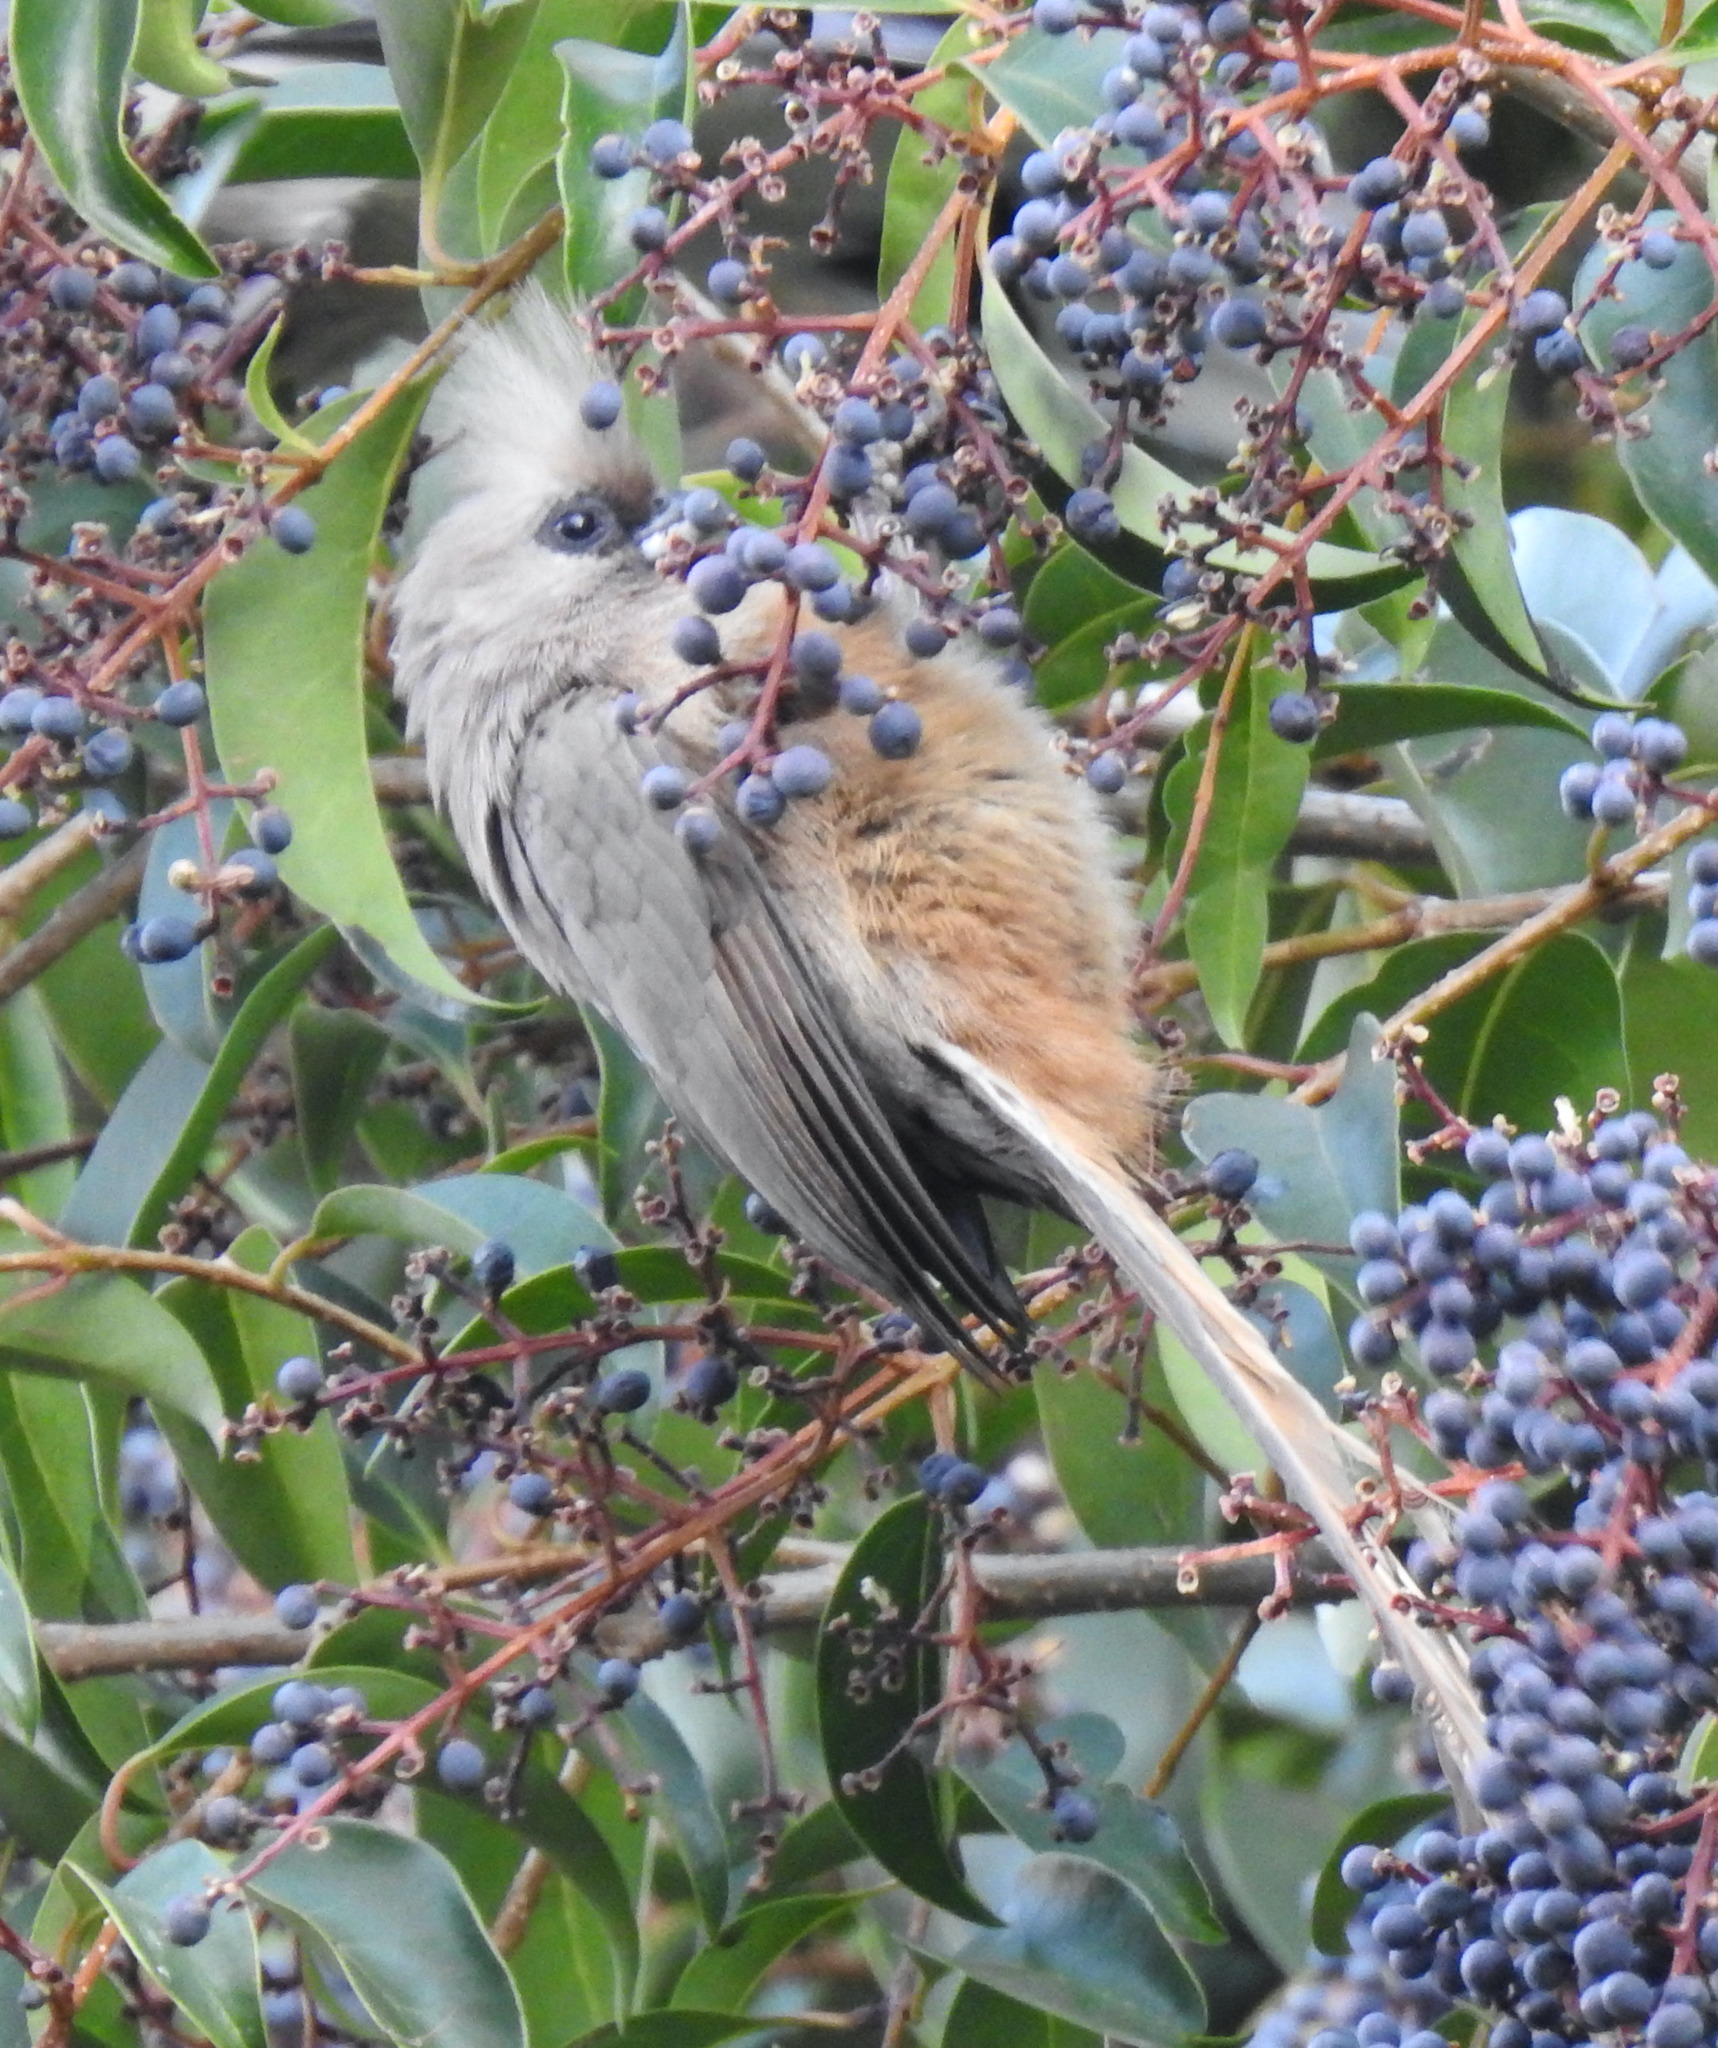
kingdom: Animalia
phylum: Chordata
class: Aves
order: Coliiformes
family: Coliidae
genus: Colius
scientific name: Colius striatus
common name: Speckled mousebird
